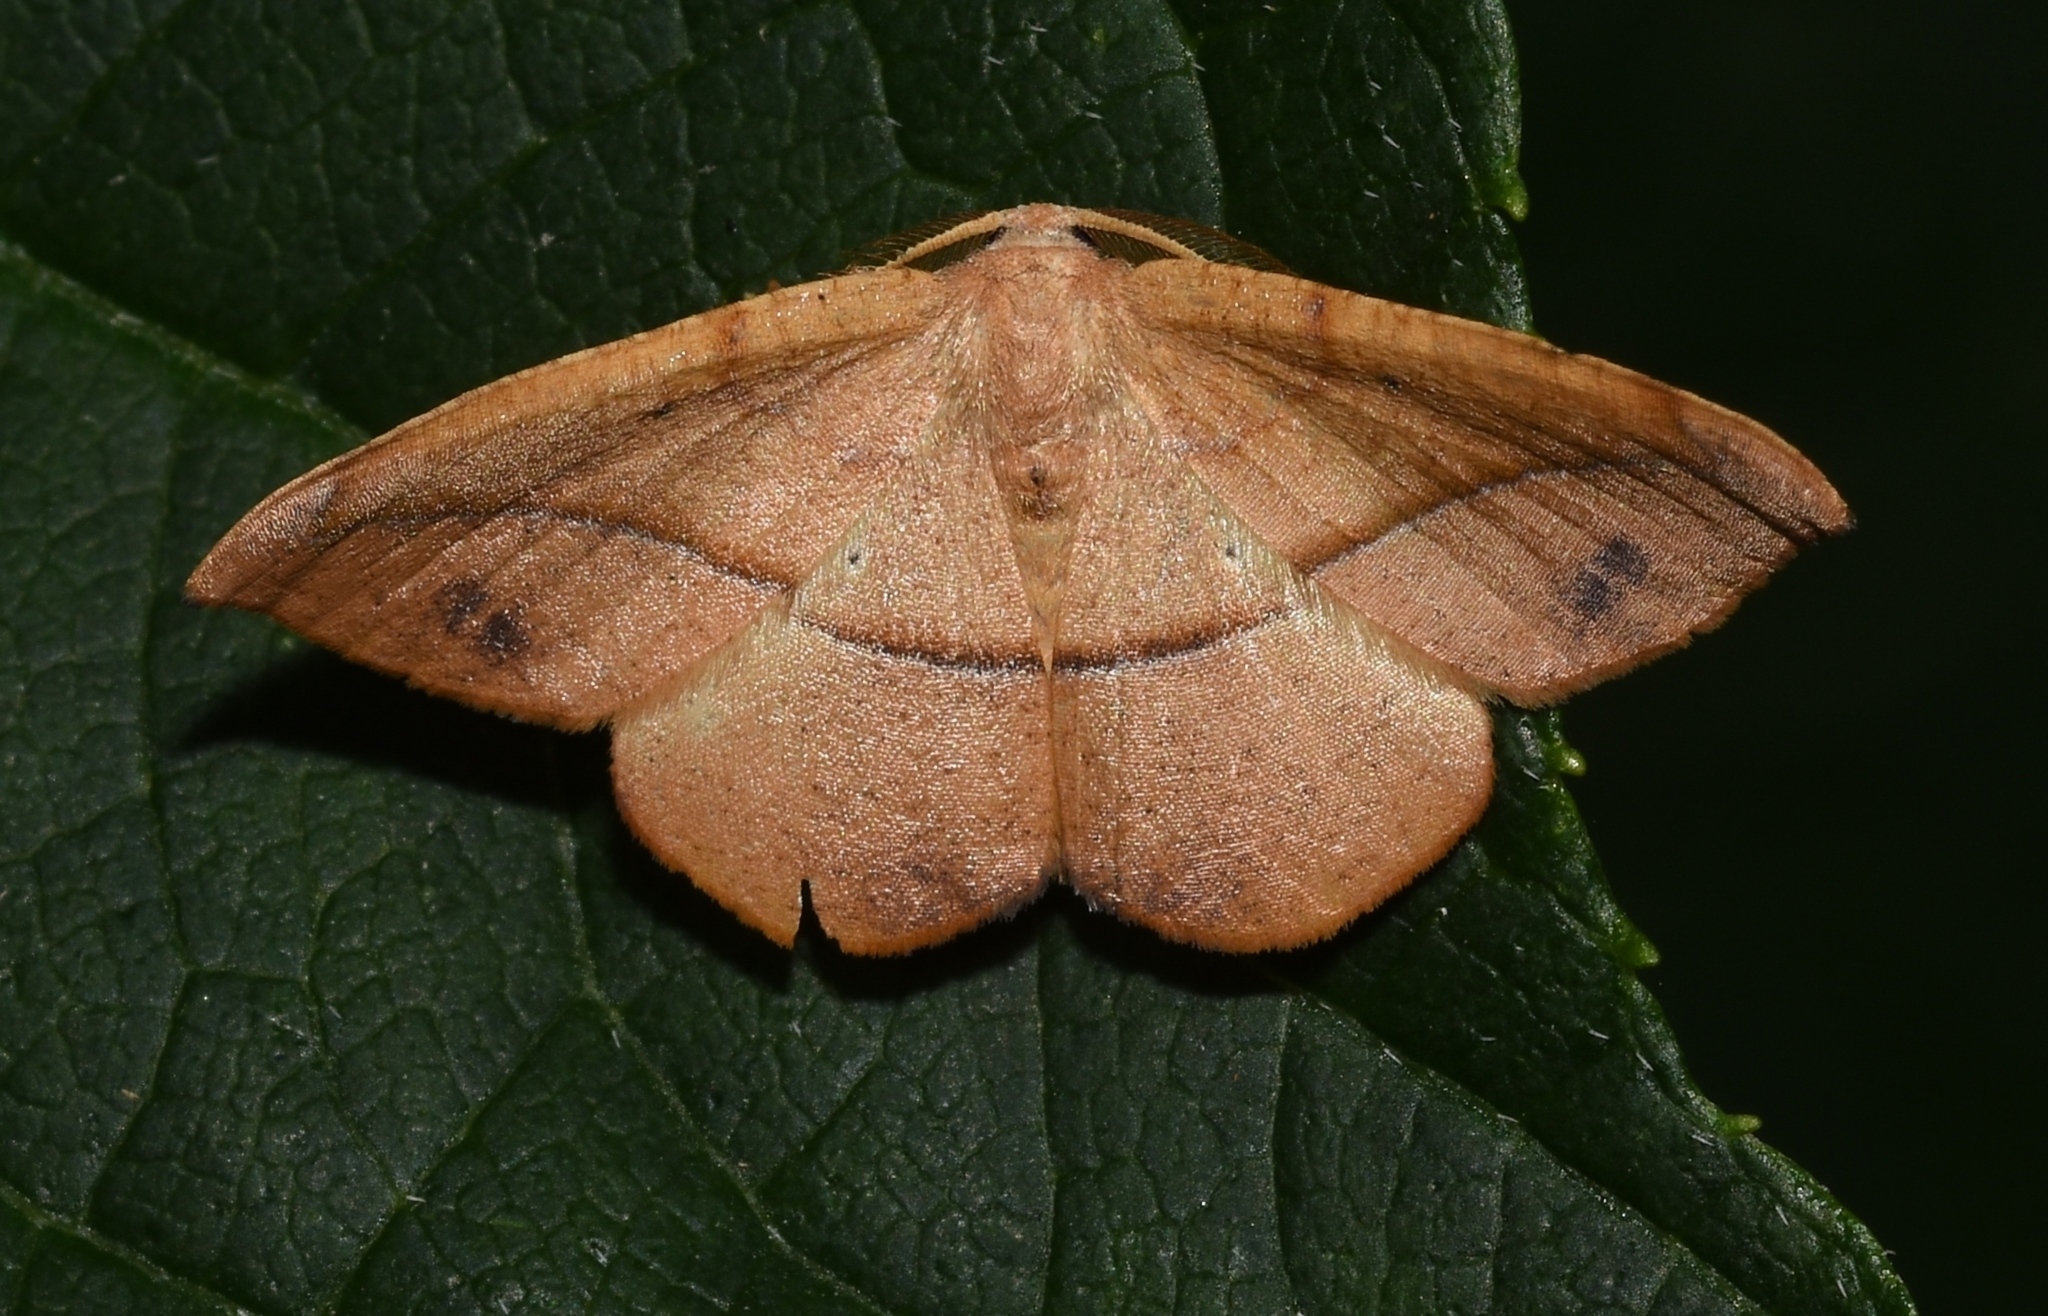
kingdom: Animalia
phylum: Arthropoda
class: Insecta
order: Lepidoptera
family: Geometridae
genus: Patalene
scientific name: Patalene olyzonaria
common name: Juniper geometer moth
